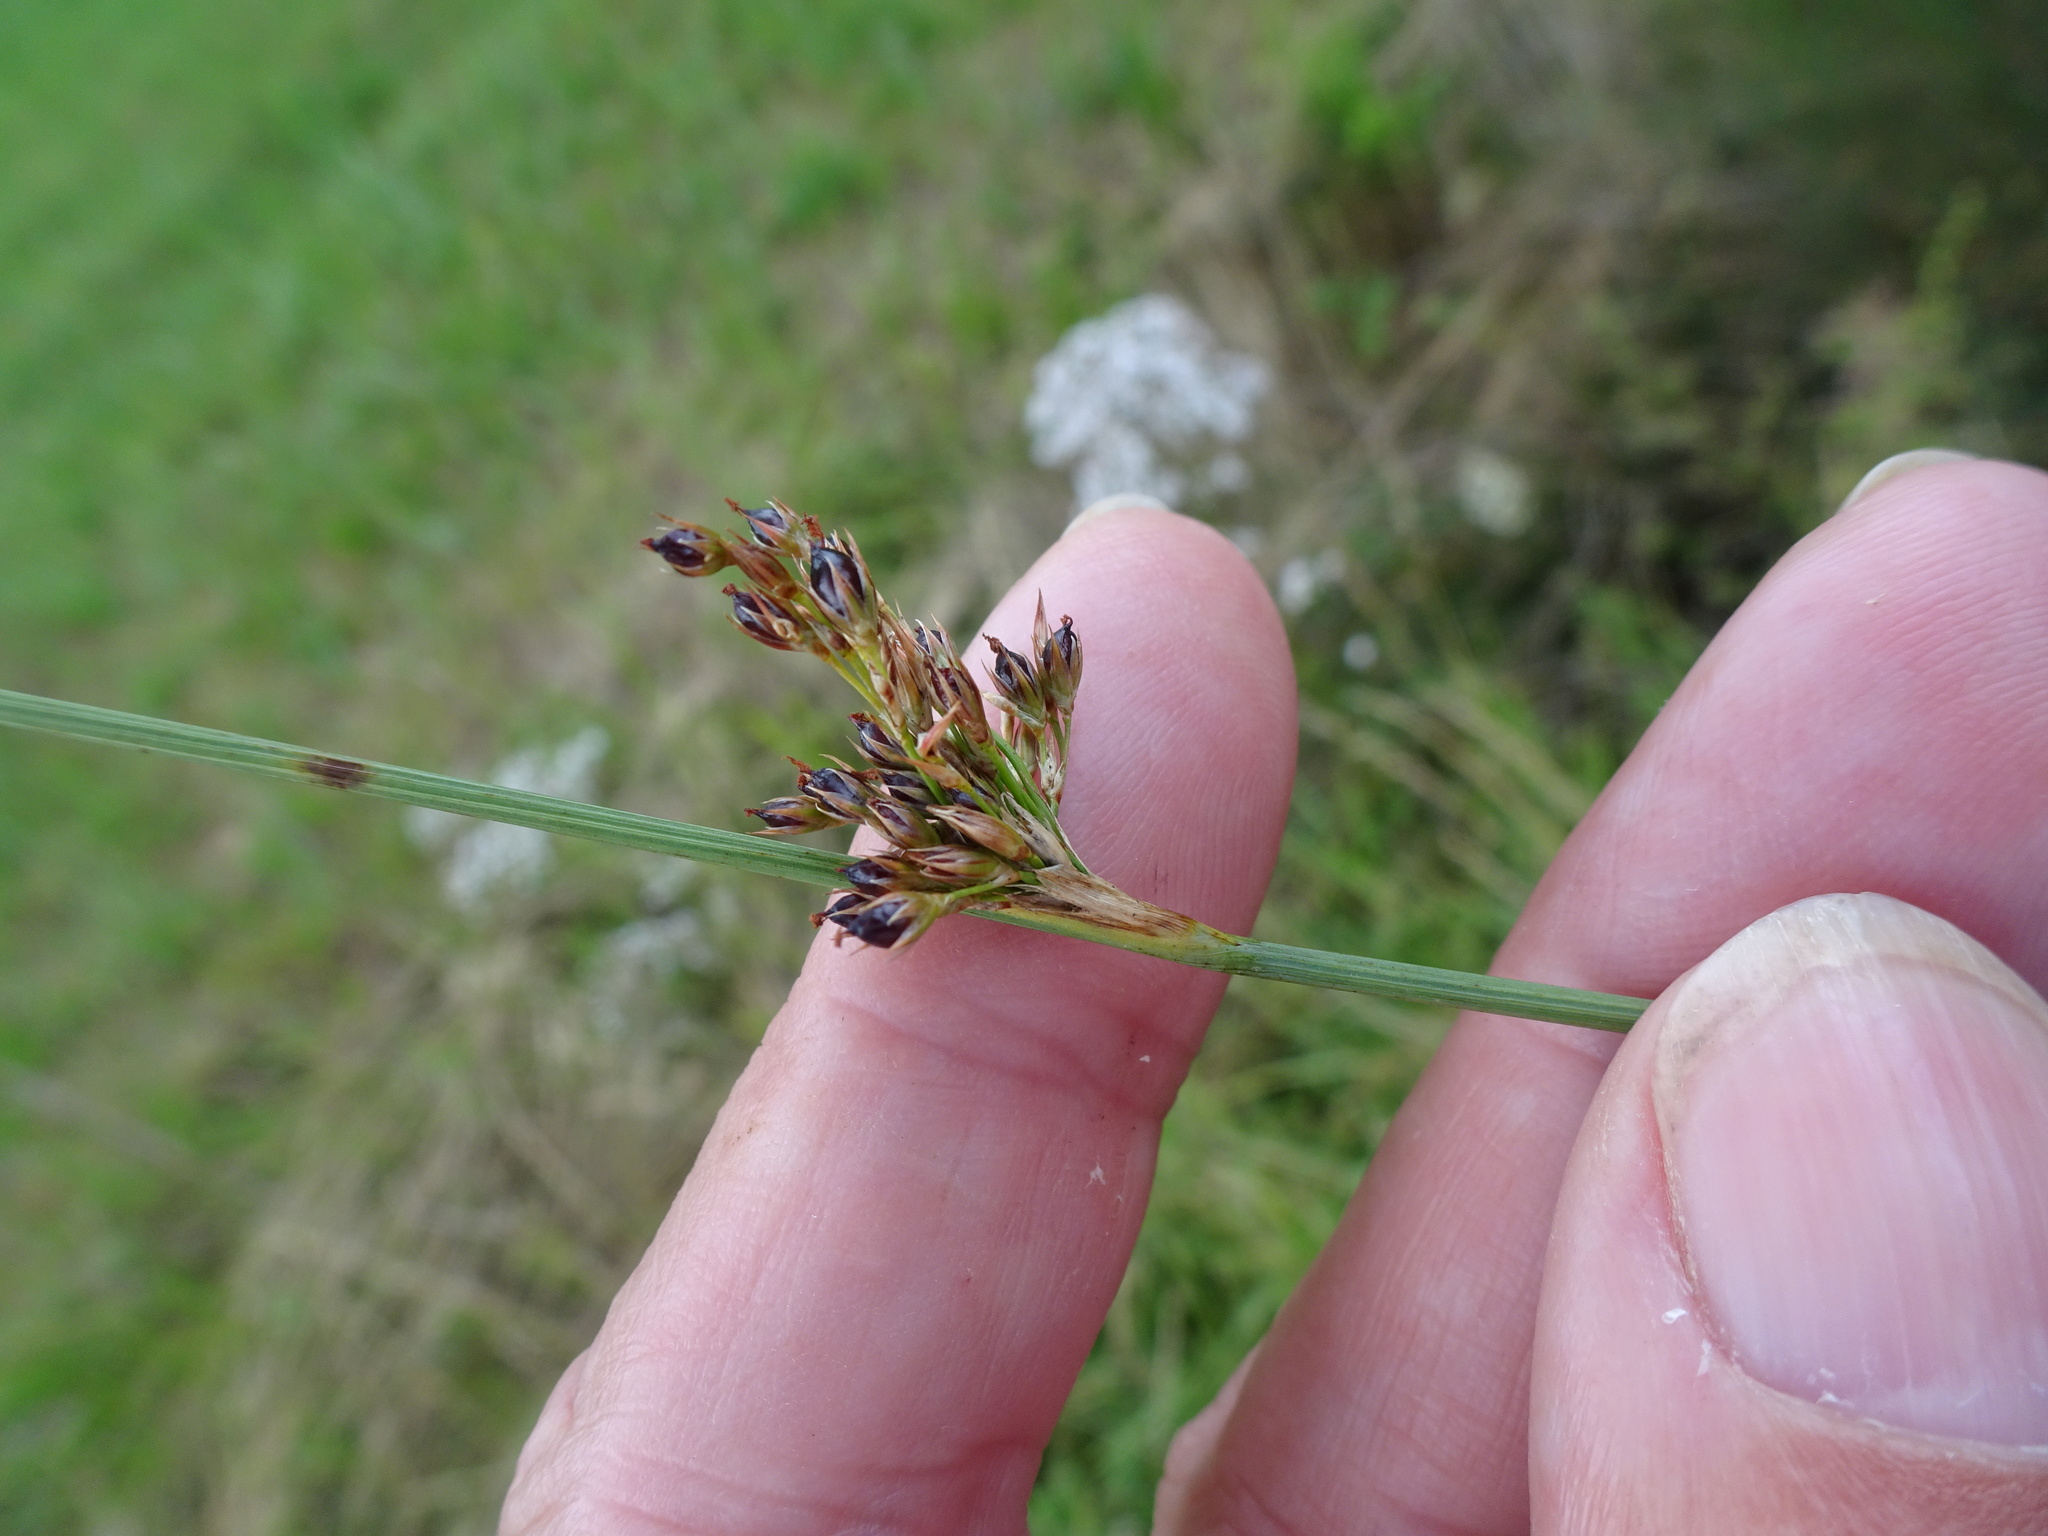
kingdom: Plantae
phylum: Tracheophyta
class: Liliopsida
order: Poales
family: Juncaceae
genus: Juncus
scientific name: Juncus inflexus
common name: Hard rush
